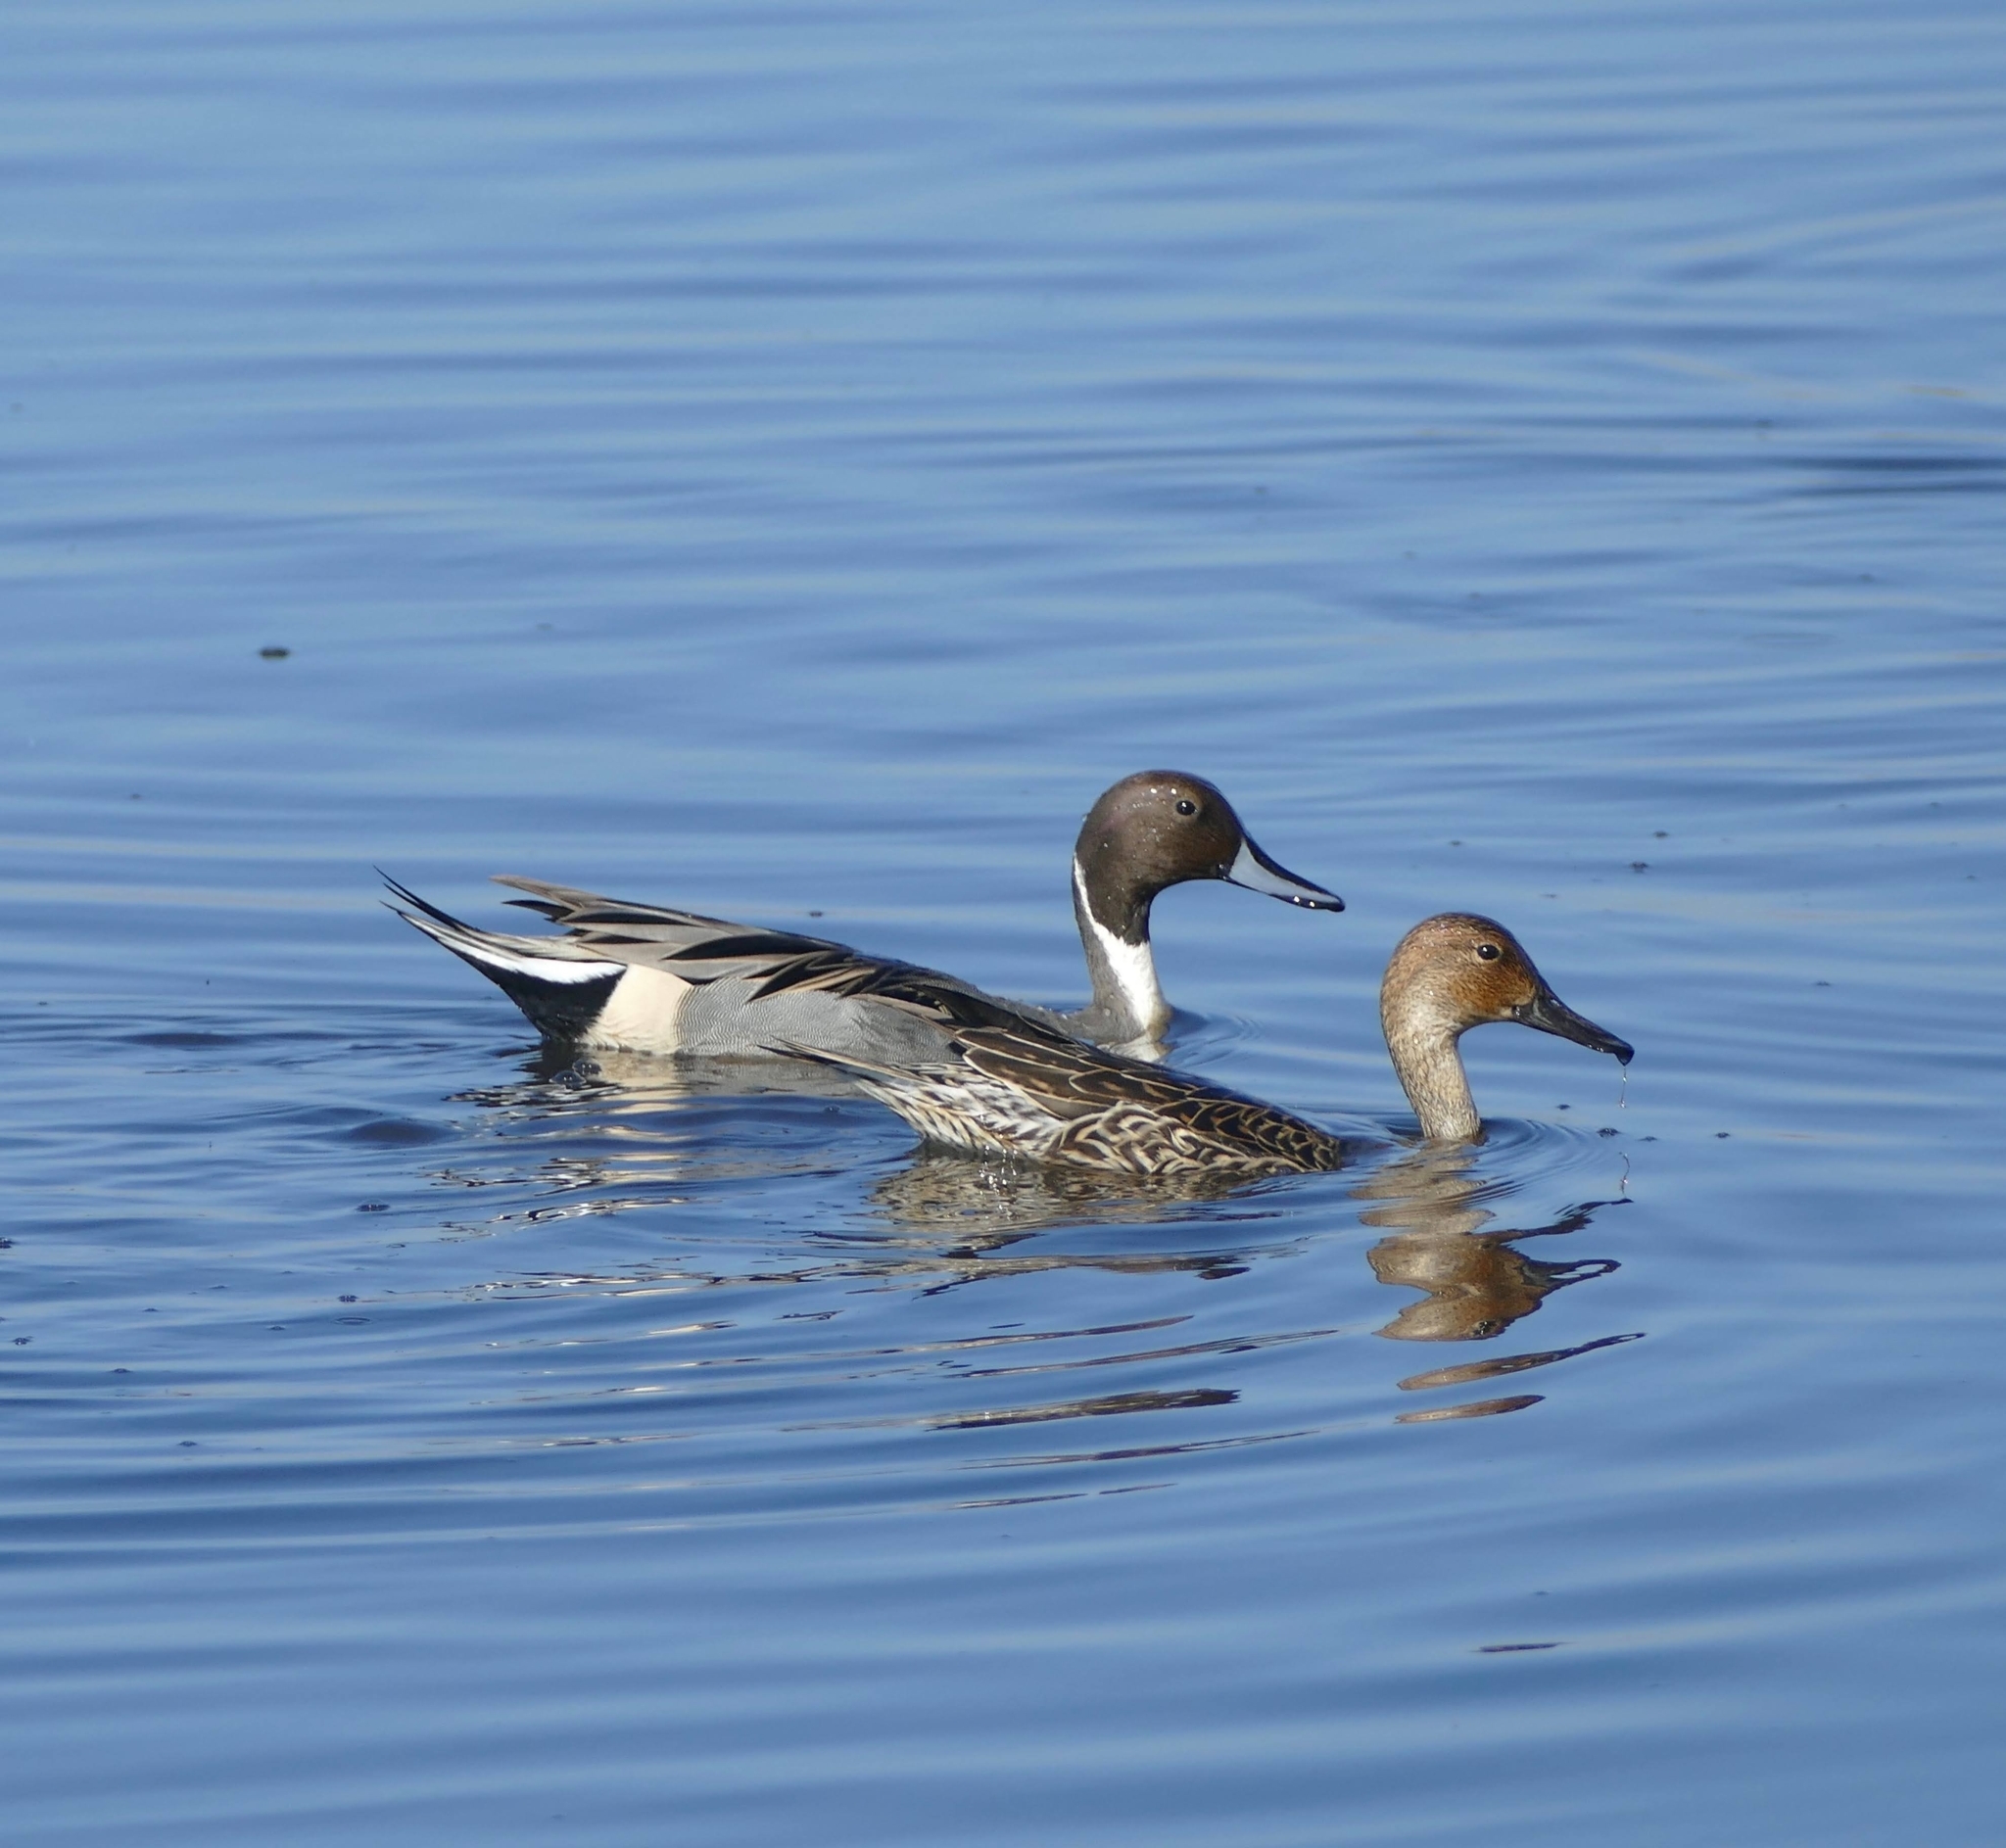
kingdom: Animalia
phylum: Chordata
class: Aves
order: Anseriformes
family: Anatidae
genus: Anas
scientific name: Anas acuta
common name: Northern pintail
